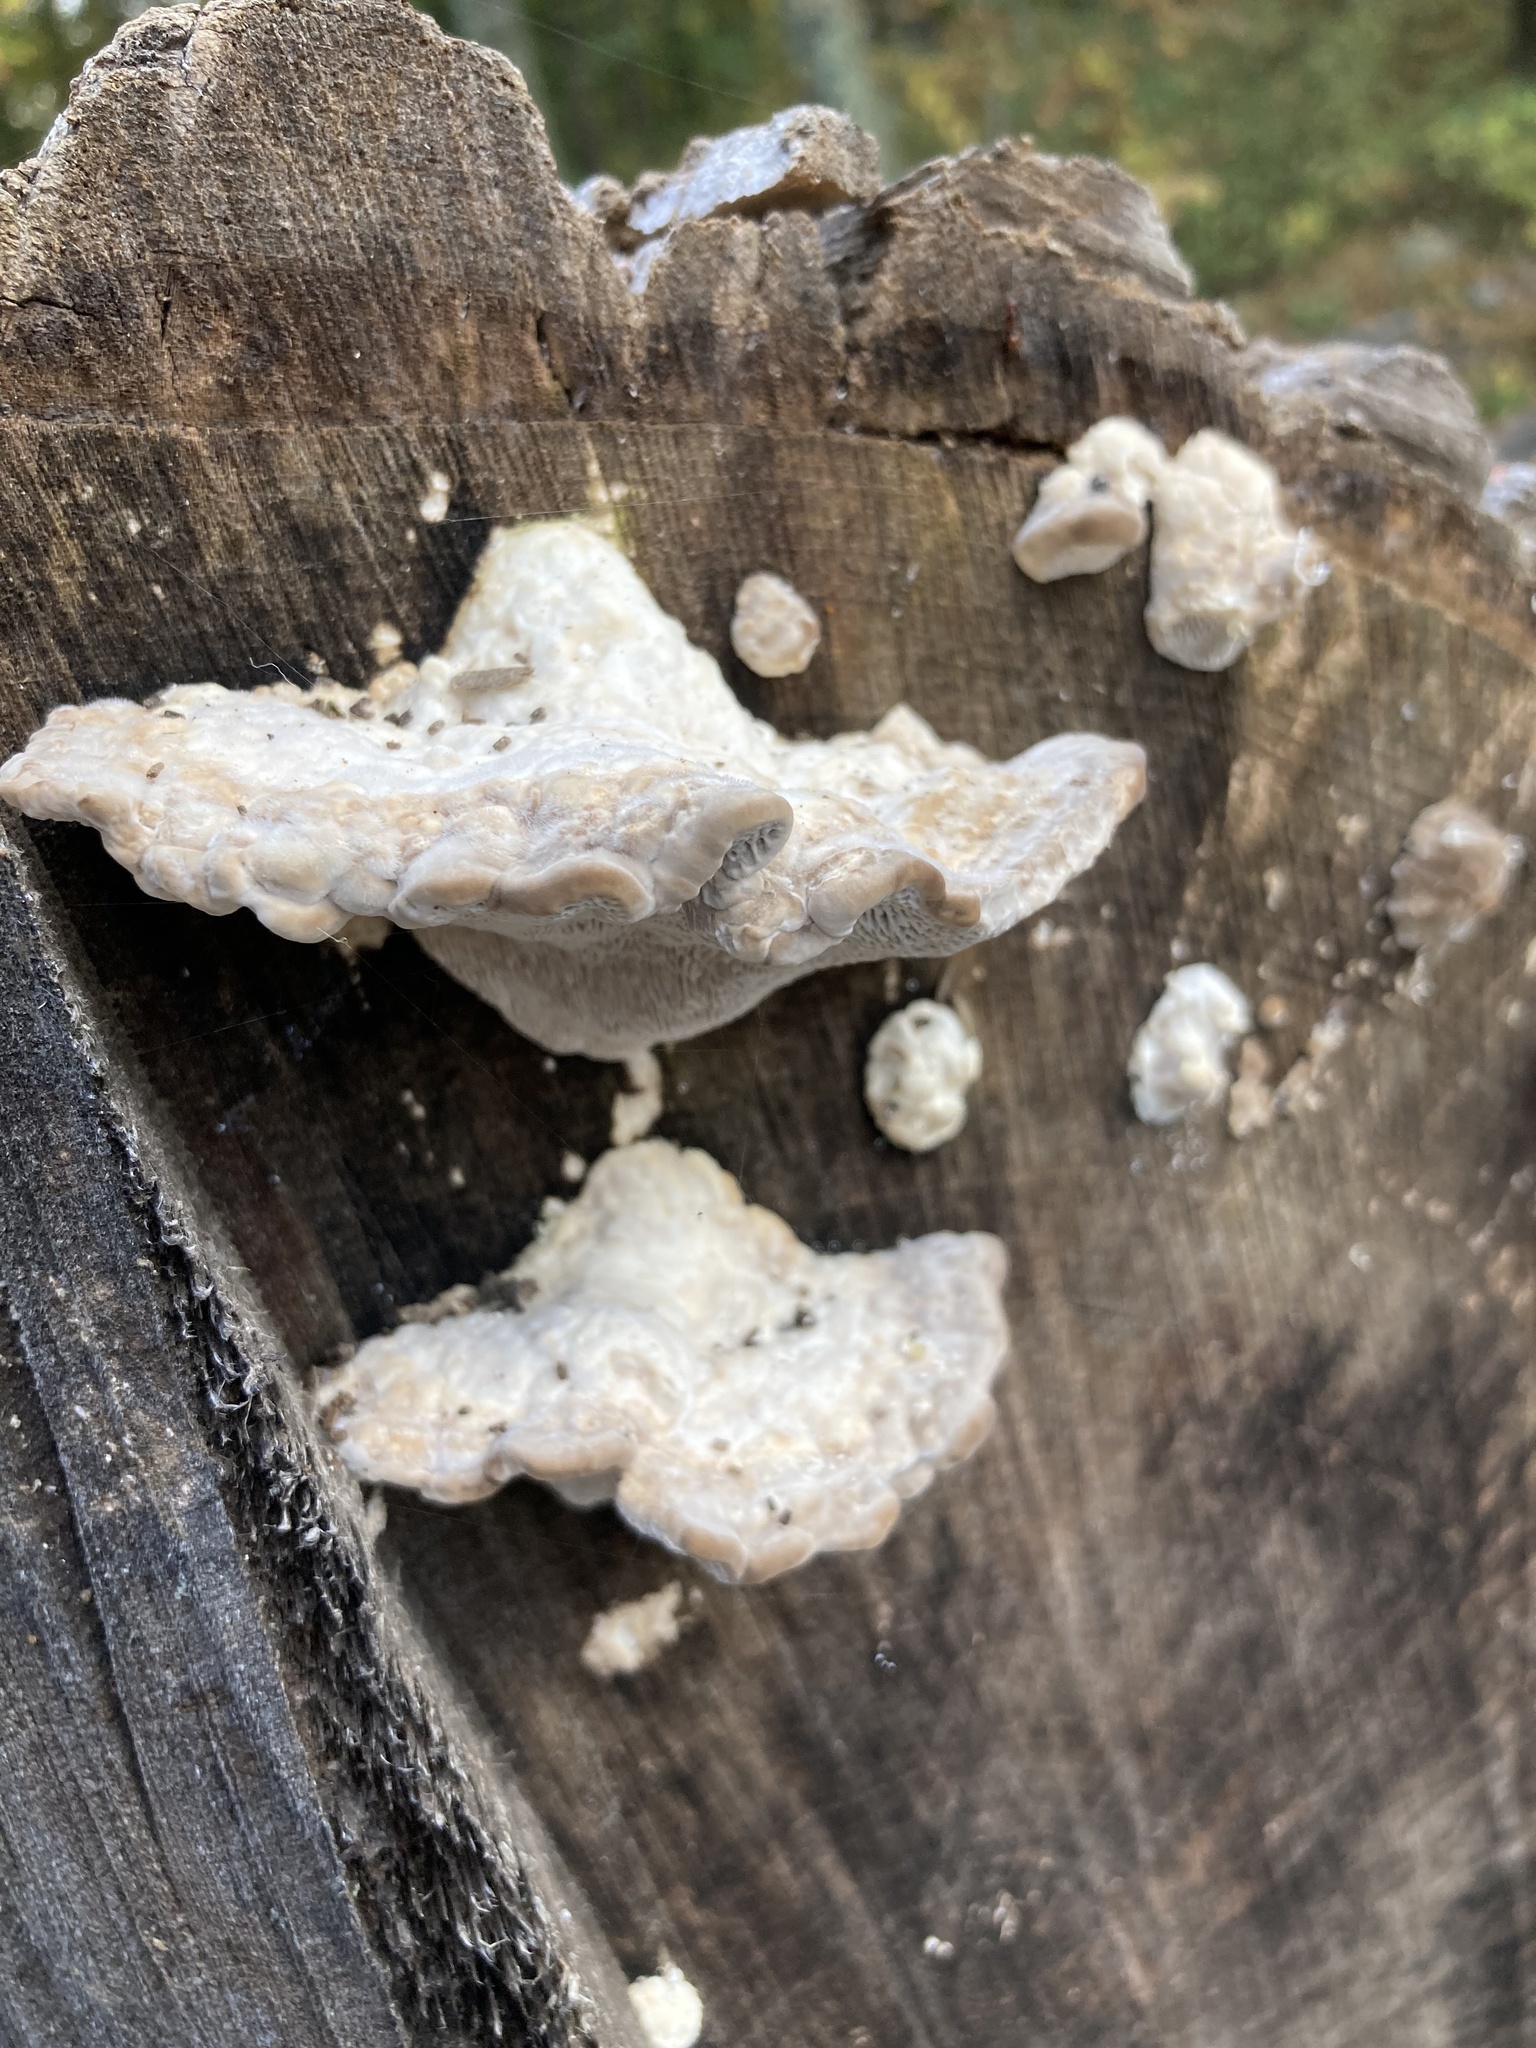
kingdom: Fungi
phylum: Basidiomycota
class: Agaricomycetes
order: Polyporales
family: Polyporaceae
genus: Trametes
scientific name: Trametes gibbosa
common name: Lumpy bracket
